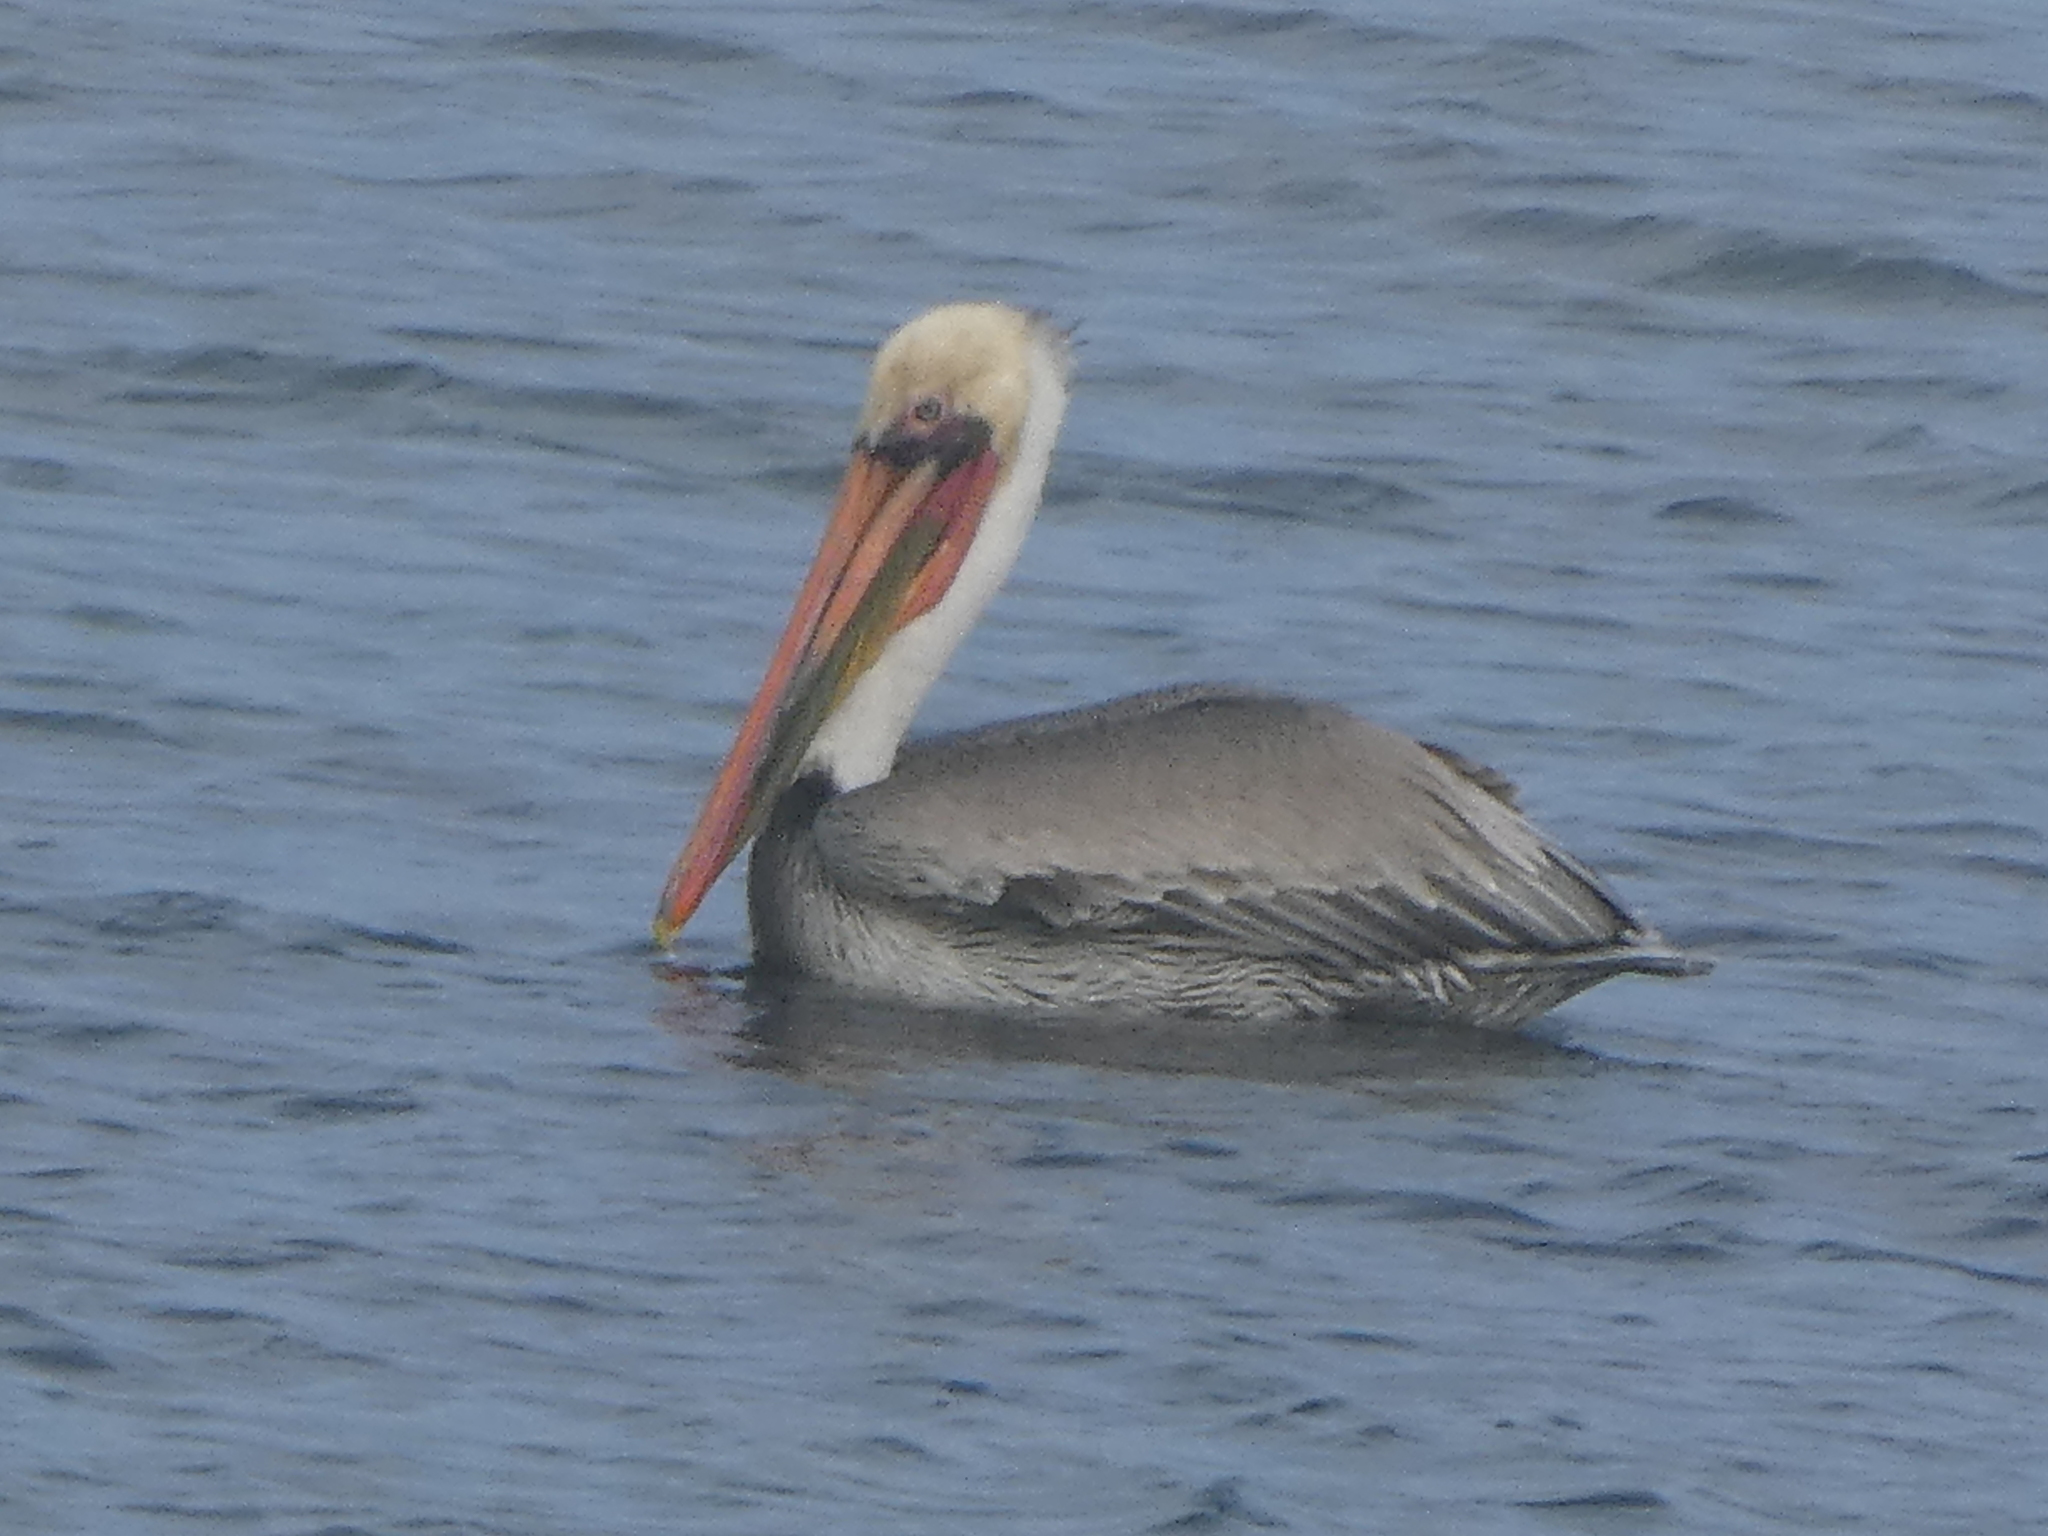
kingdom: Animalia
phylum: Chordata
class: Aves
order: Pelecaniformes
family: Pelecanidae
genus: Pelecanus
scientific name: Pelecanus occidentalis
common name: Brown pelican
